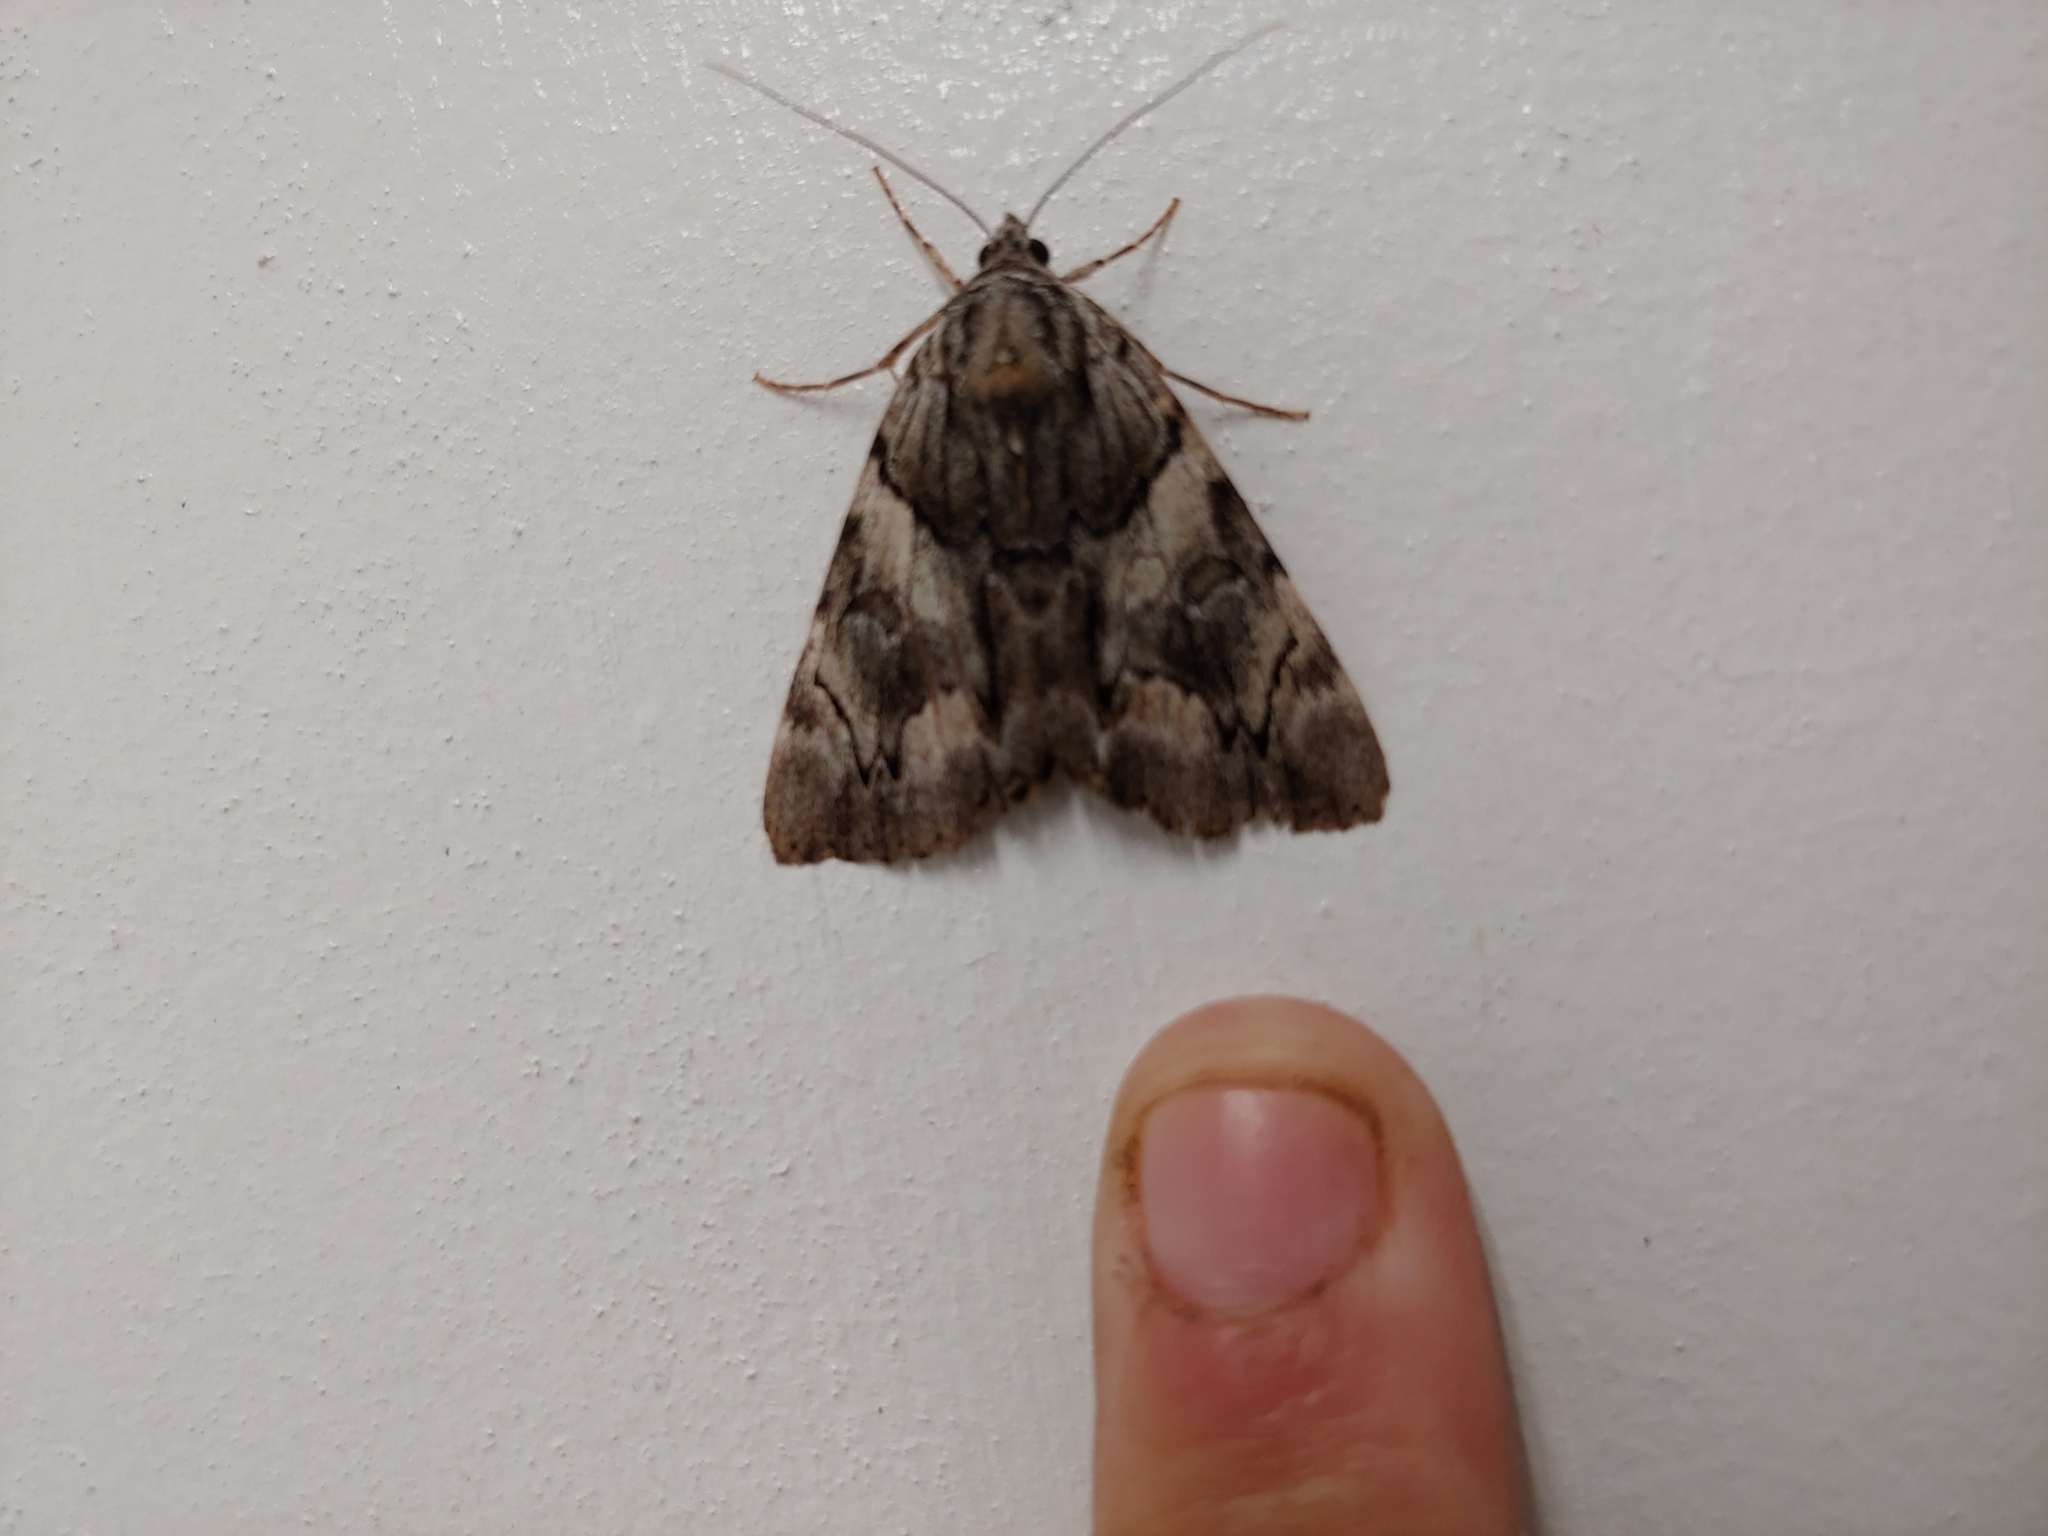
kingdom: Animalia
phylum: Arthropoda
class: Insecta
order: Lepidoptera
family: Erebidae
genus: Catocala
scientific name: Catocala blandula
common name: Charming underwing
